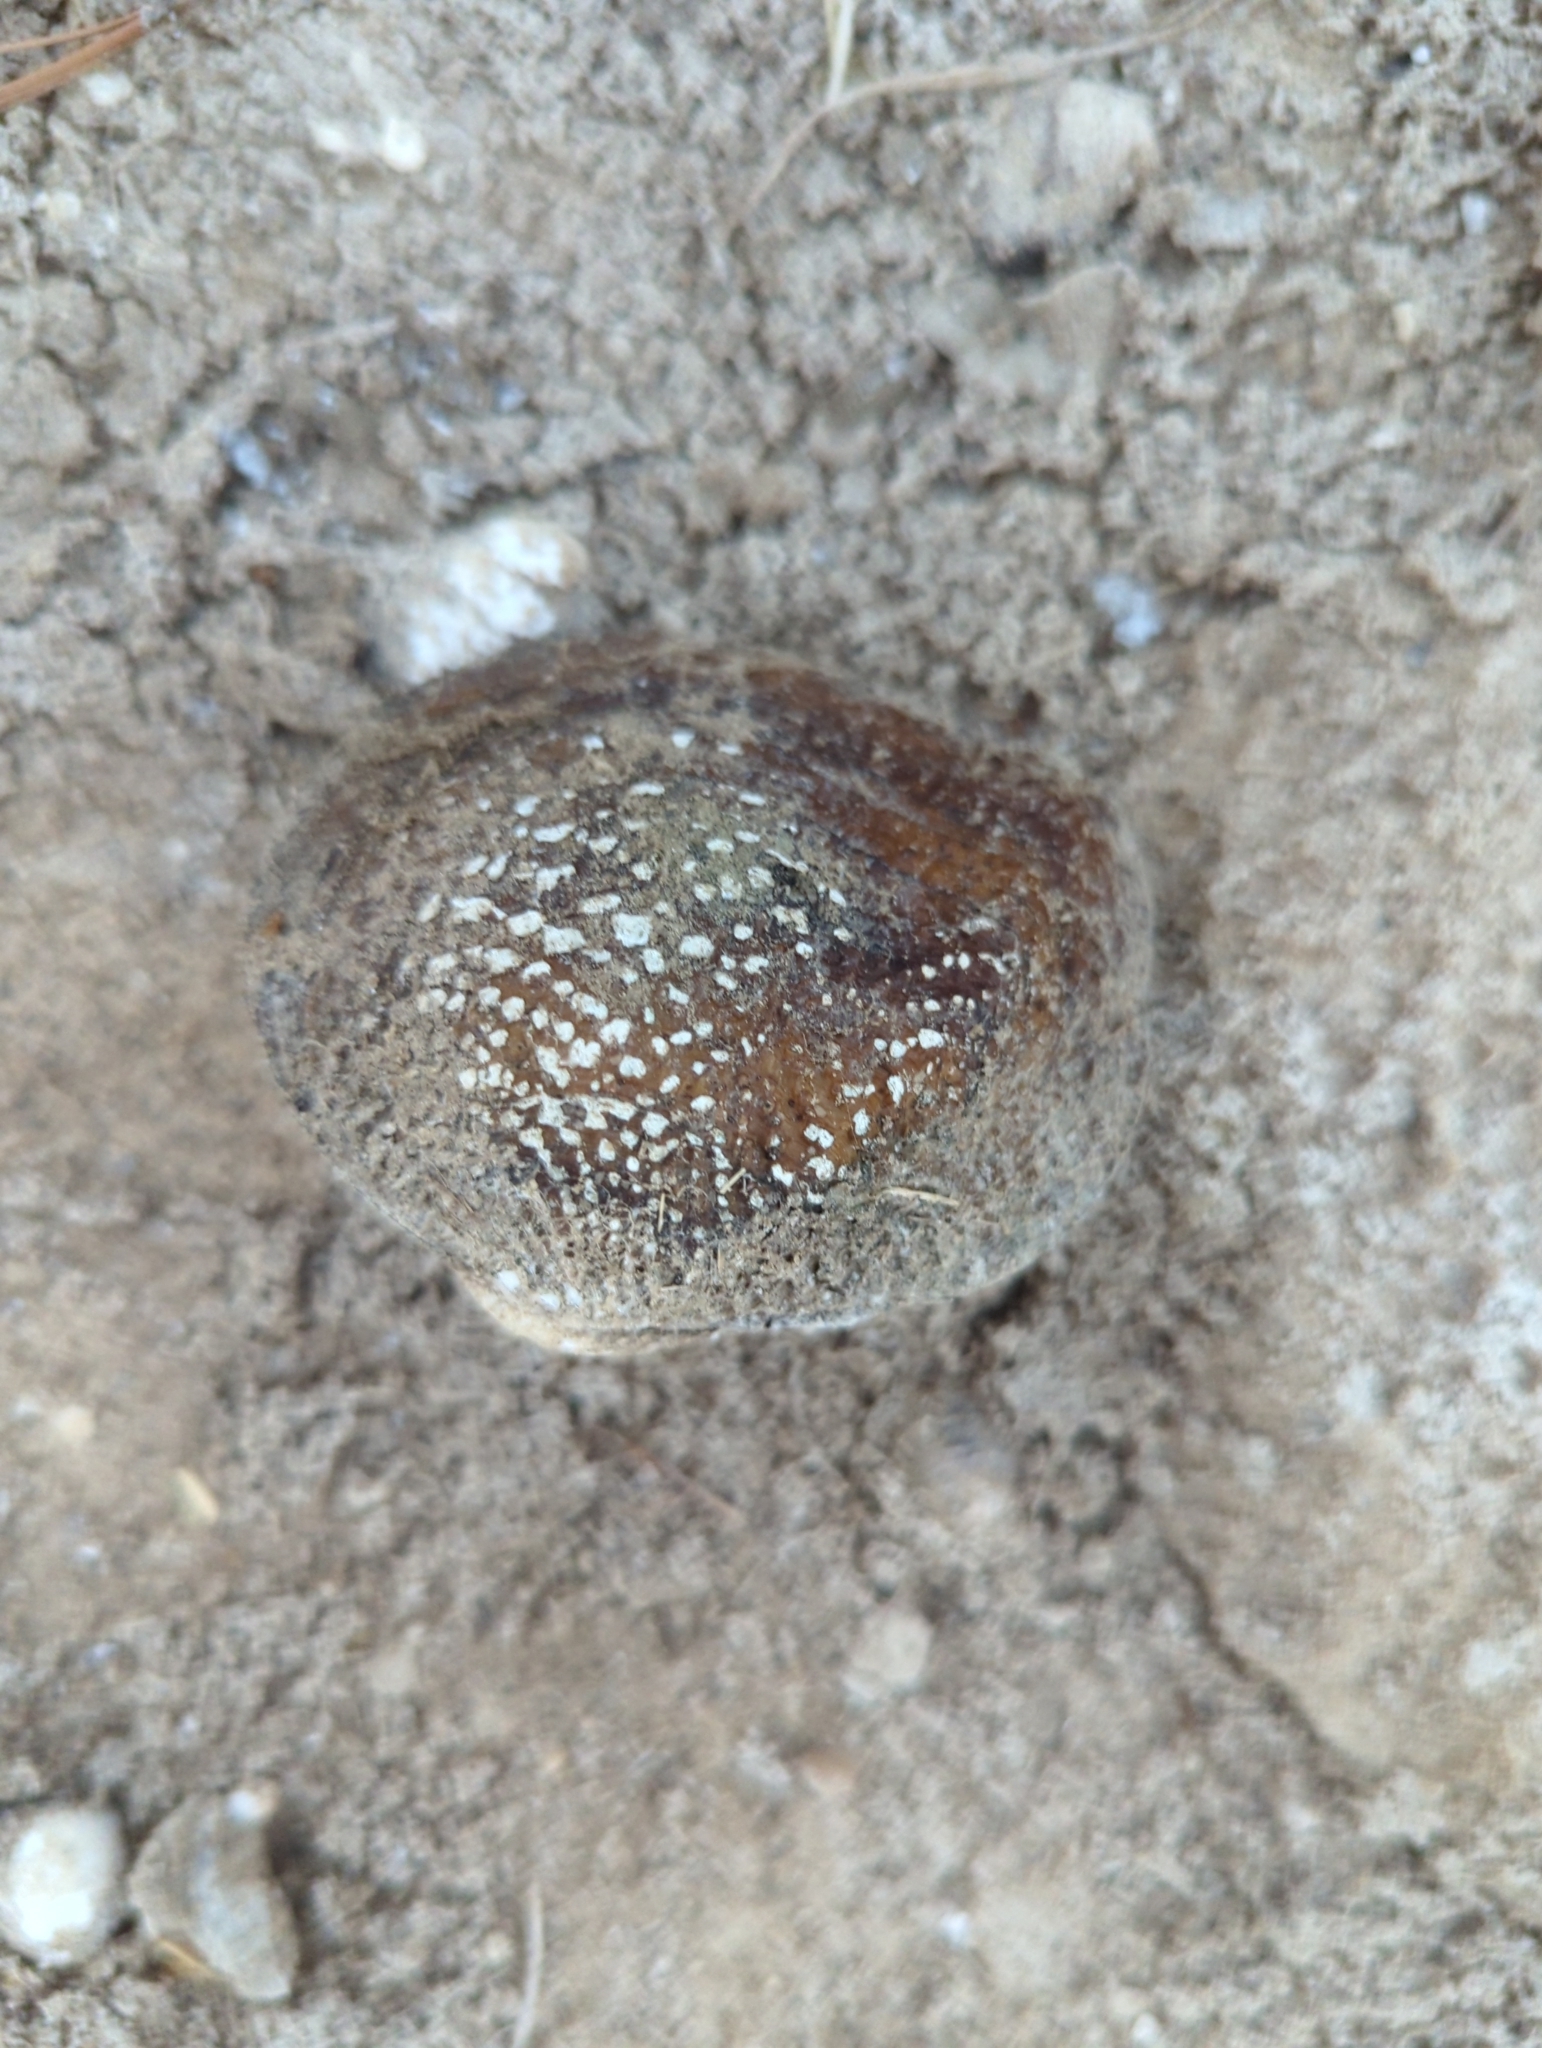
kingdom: Animalia
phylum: Mollusca
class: Bivalvia
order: Unionida
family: Unionidae
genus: Quadrula
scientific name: Quadrula quadrula
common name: Mapleleaf
